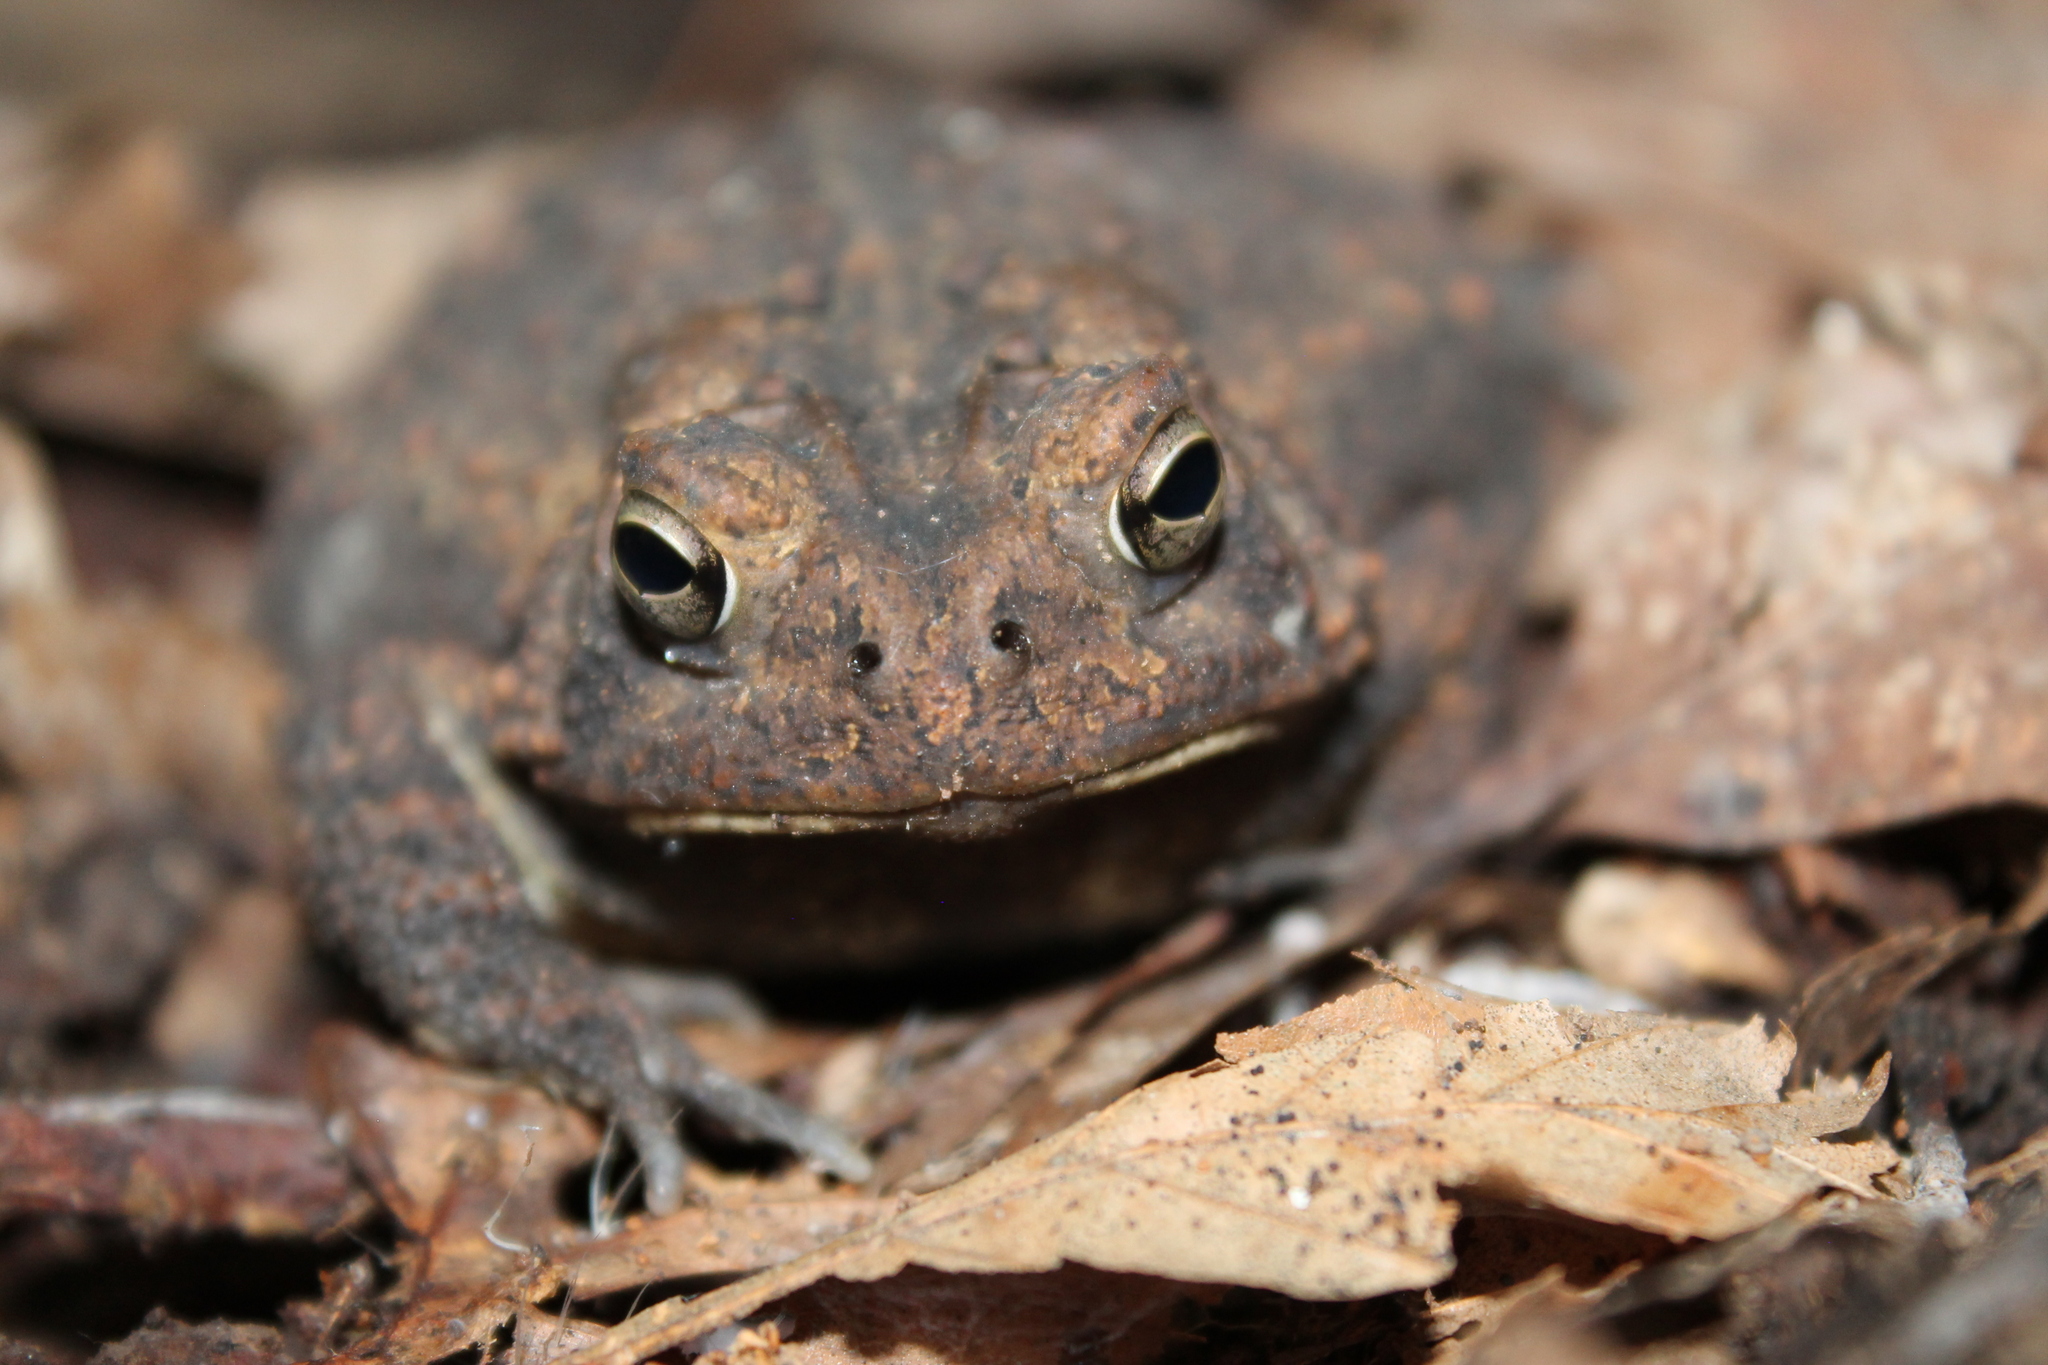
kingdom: Animalia
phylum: Chordata
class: Amphibia
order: Anura
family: Bufonidae
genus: Anaxyrus
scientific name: Anaxyrus americanus
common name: American toad
